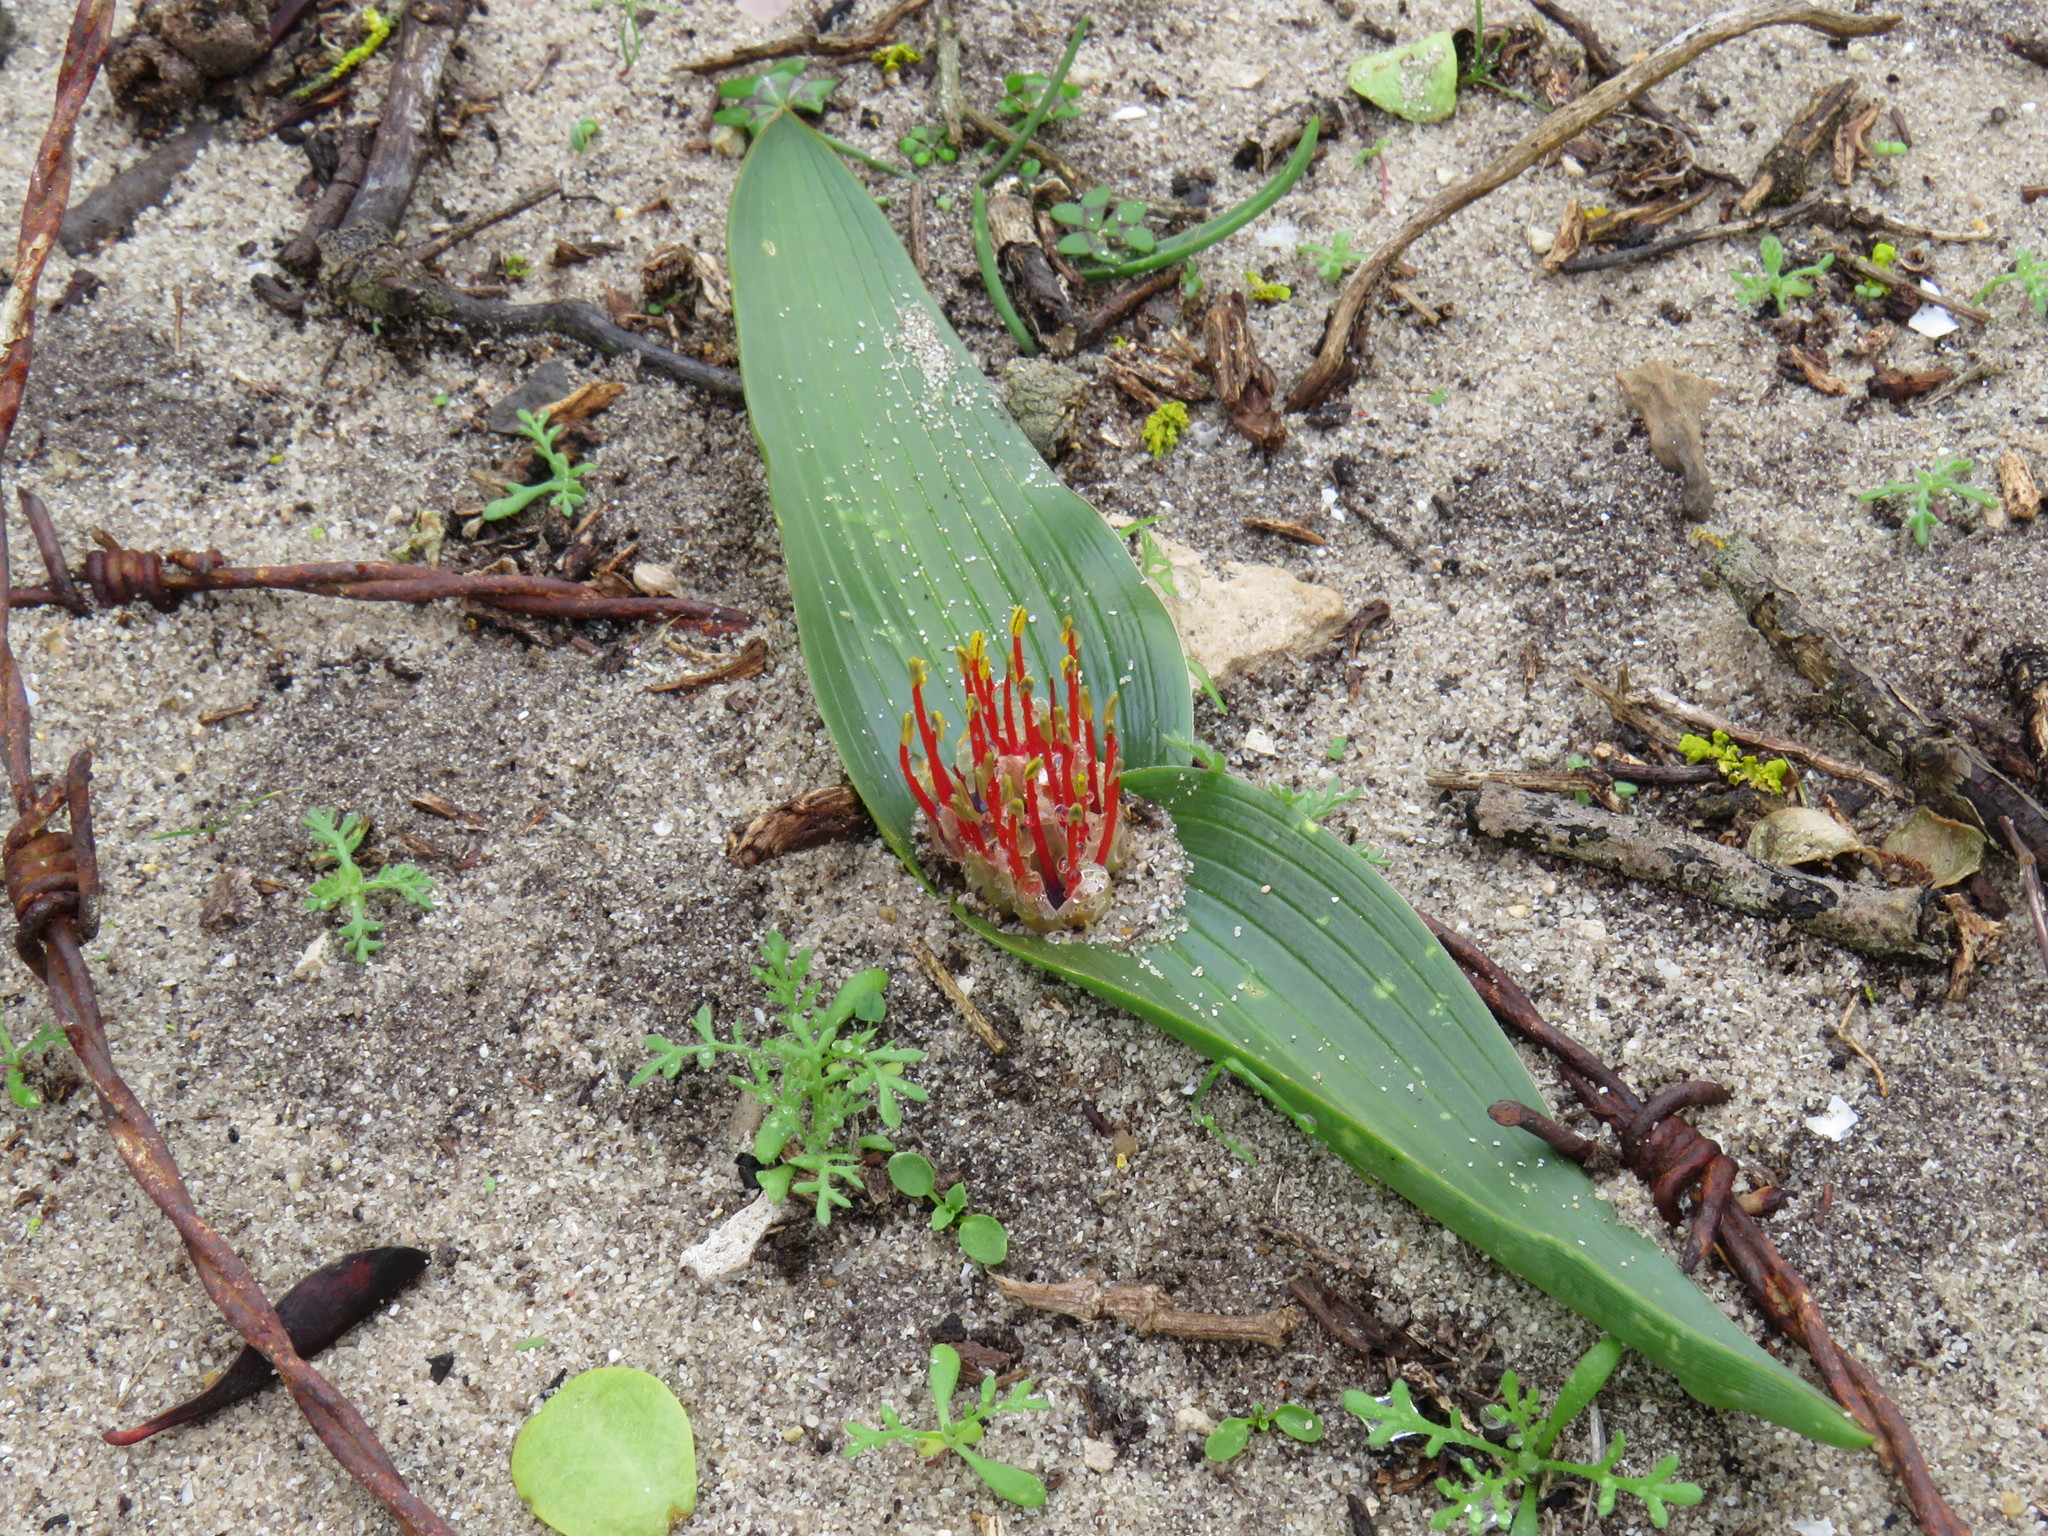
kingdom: Plantae
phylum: Tracheophyta
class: Liliopsida
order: Asparagales
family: Asparagaceae
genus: Daubenya
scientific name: Daubenya zeyheri
